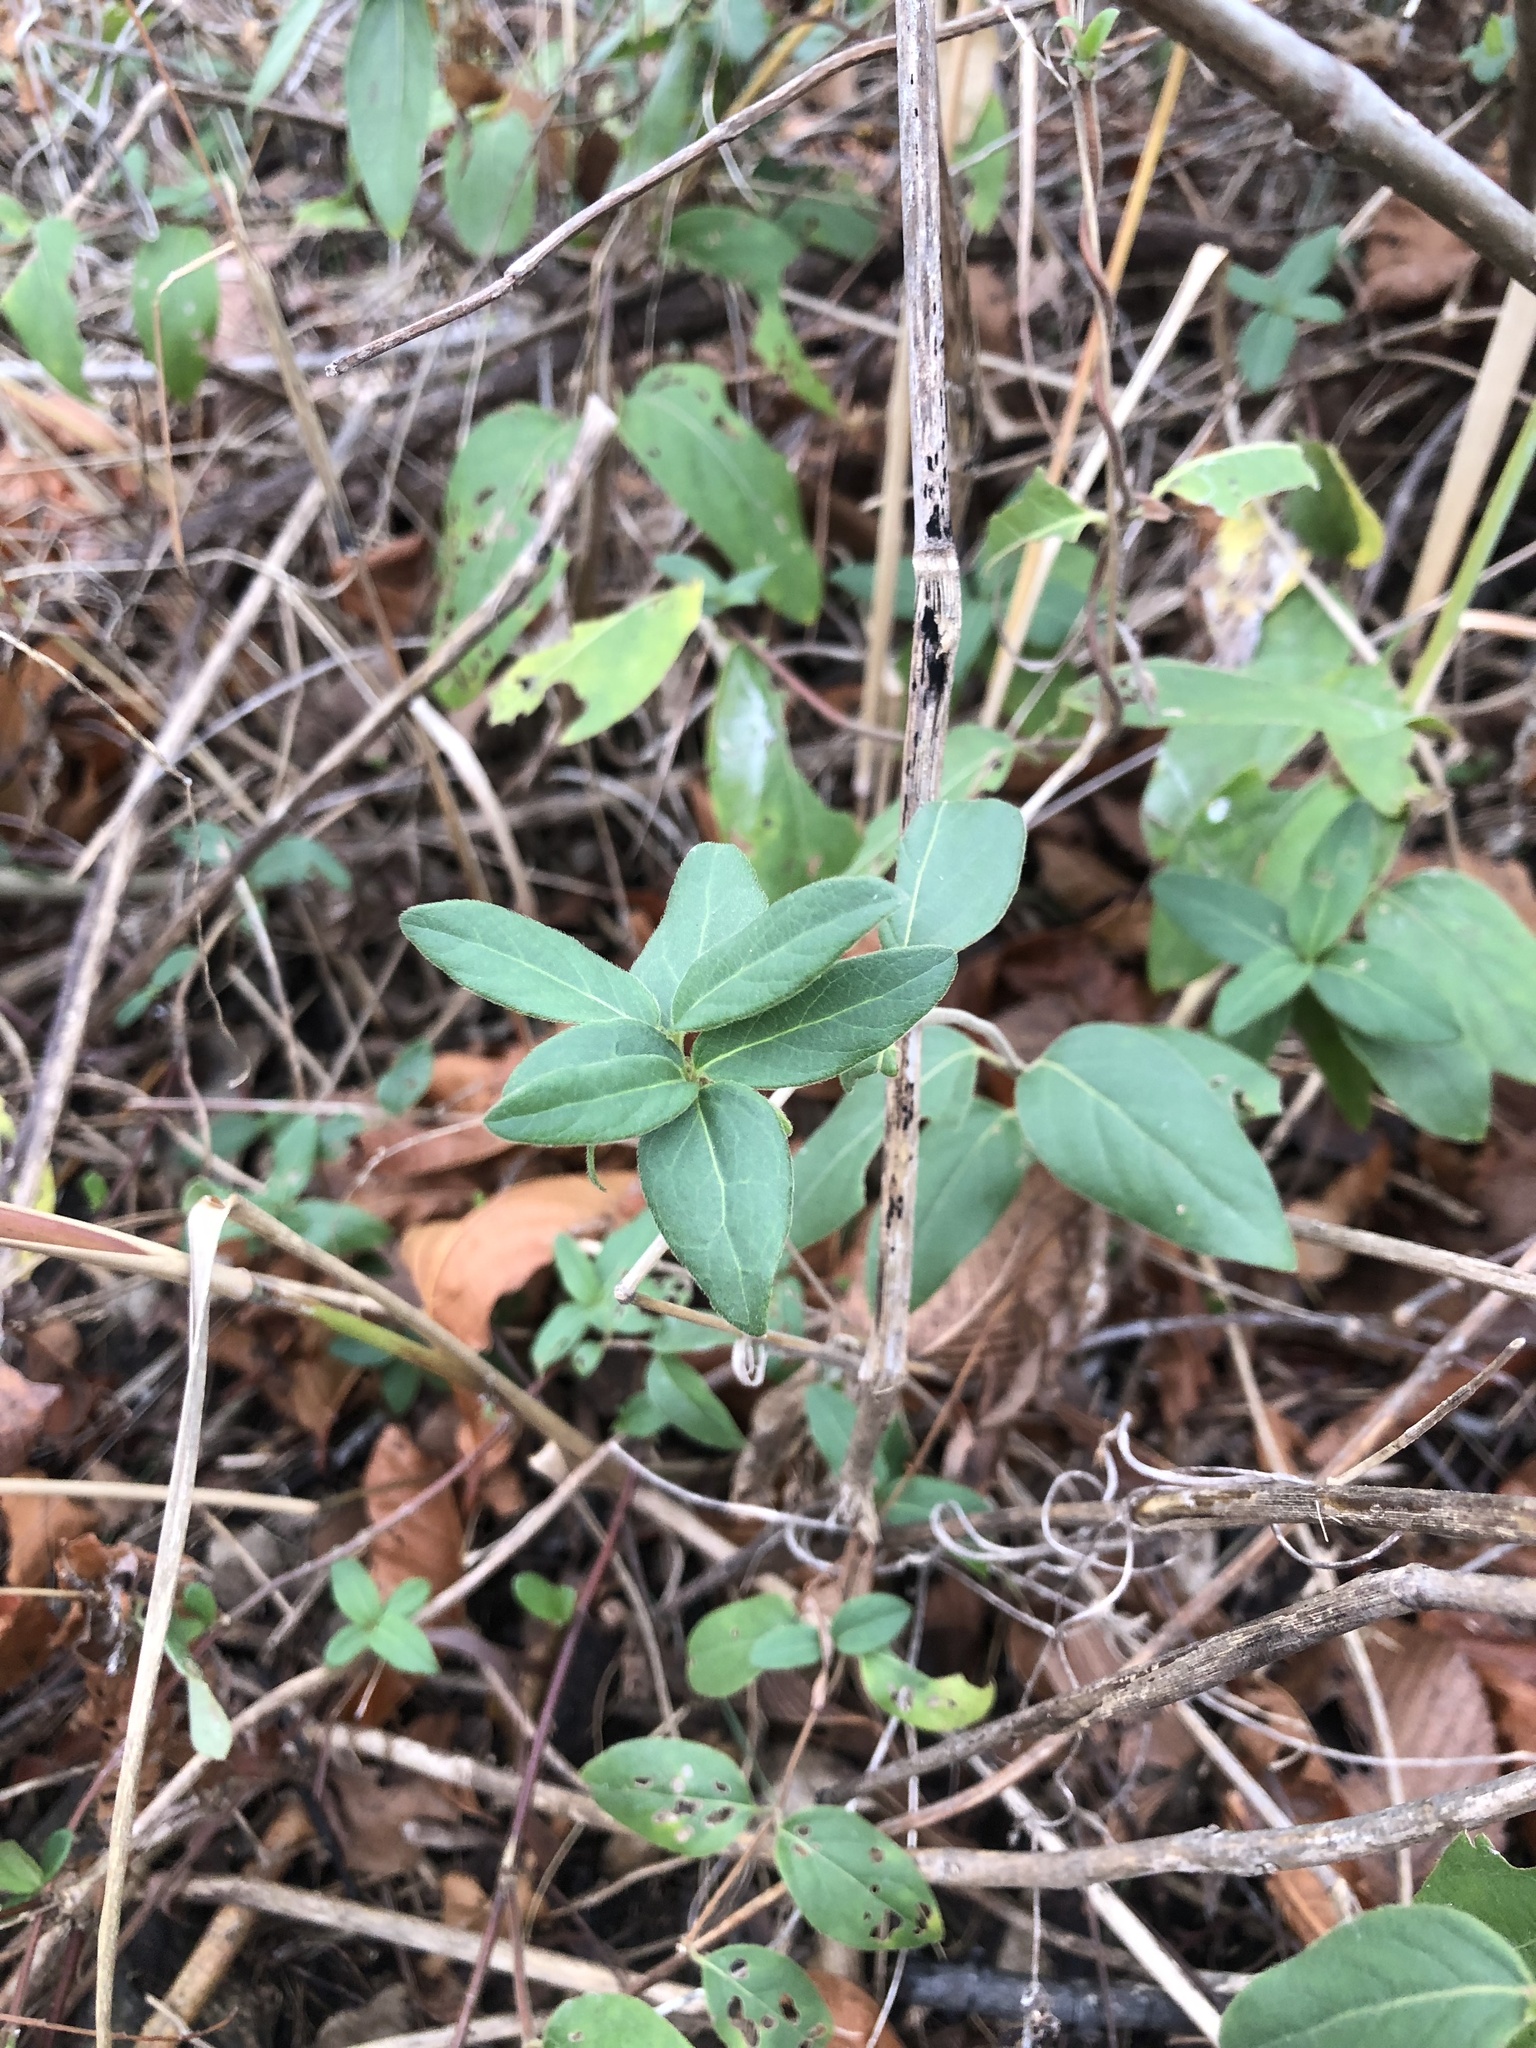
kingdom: Plantae
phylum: Tracheophyta
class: Magnoliopsida
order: Dipsacales
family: Caprifoliaceae
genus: Lonicera
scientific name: Lonicera japonica
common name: Japanese honeysuckle
